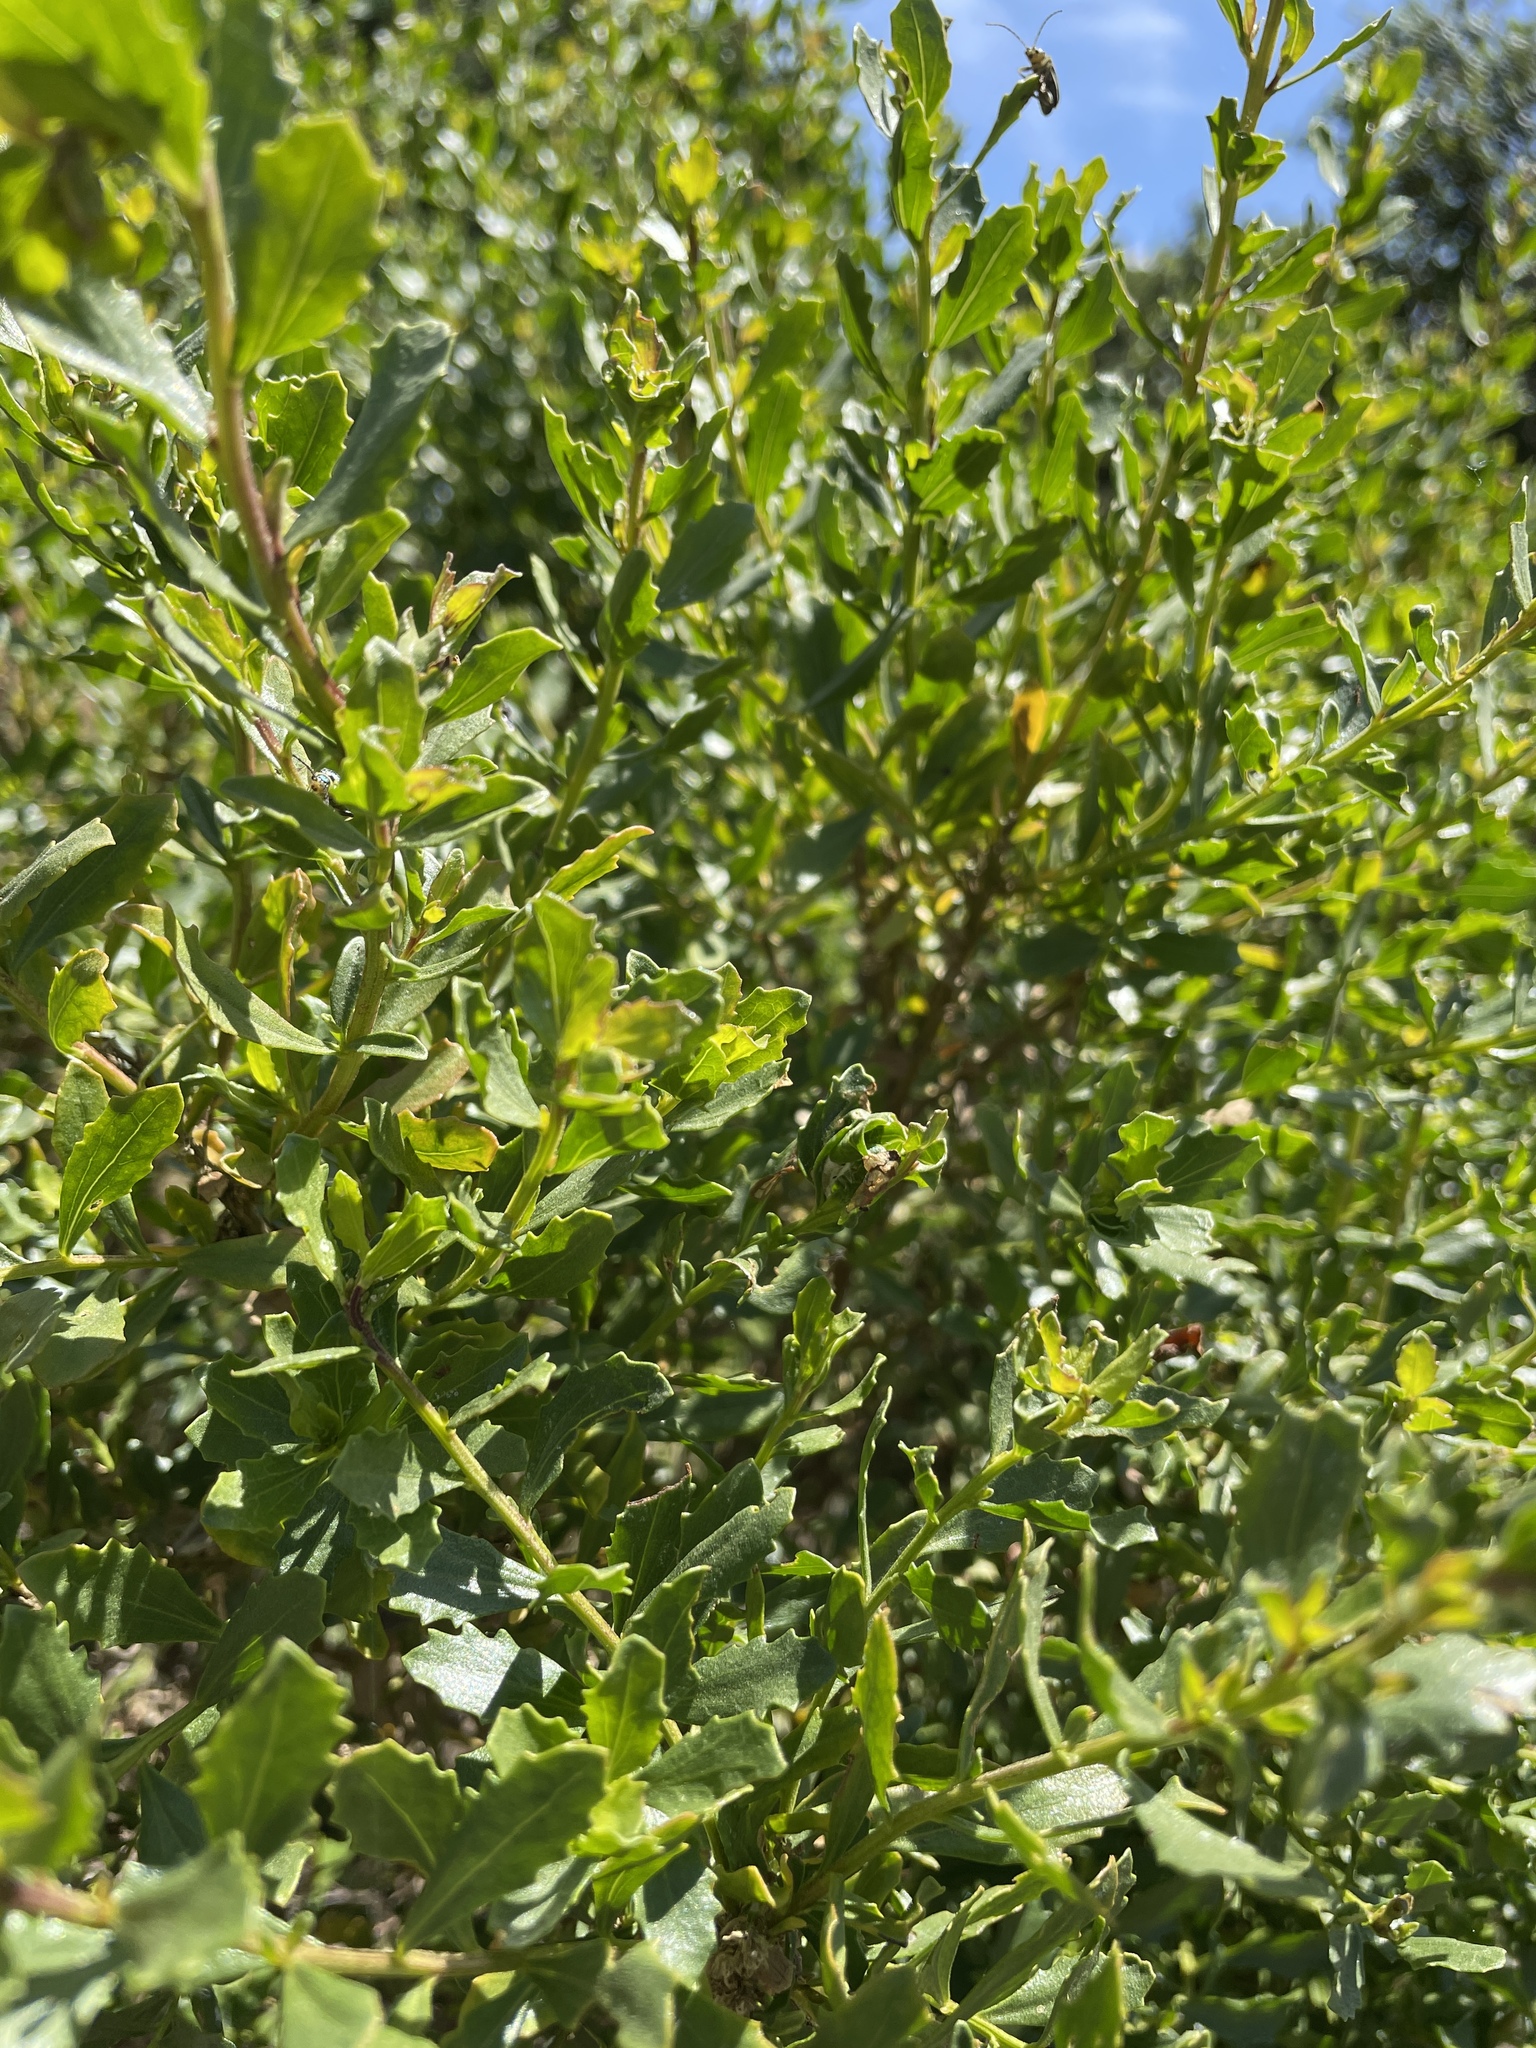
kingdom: Plantae
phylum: Tracheophyta
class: Magnoliopsida
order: Asterales
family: Asteraceae
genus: Baccharis
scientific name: Baccharis pilularis
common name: Coyotebrush
